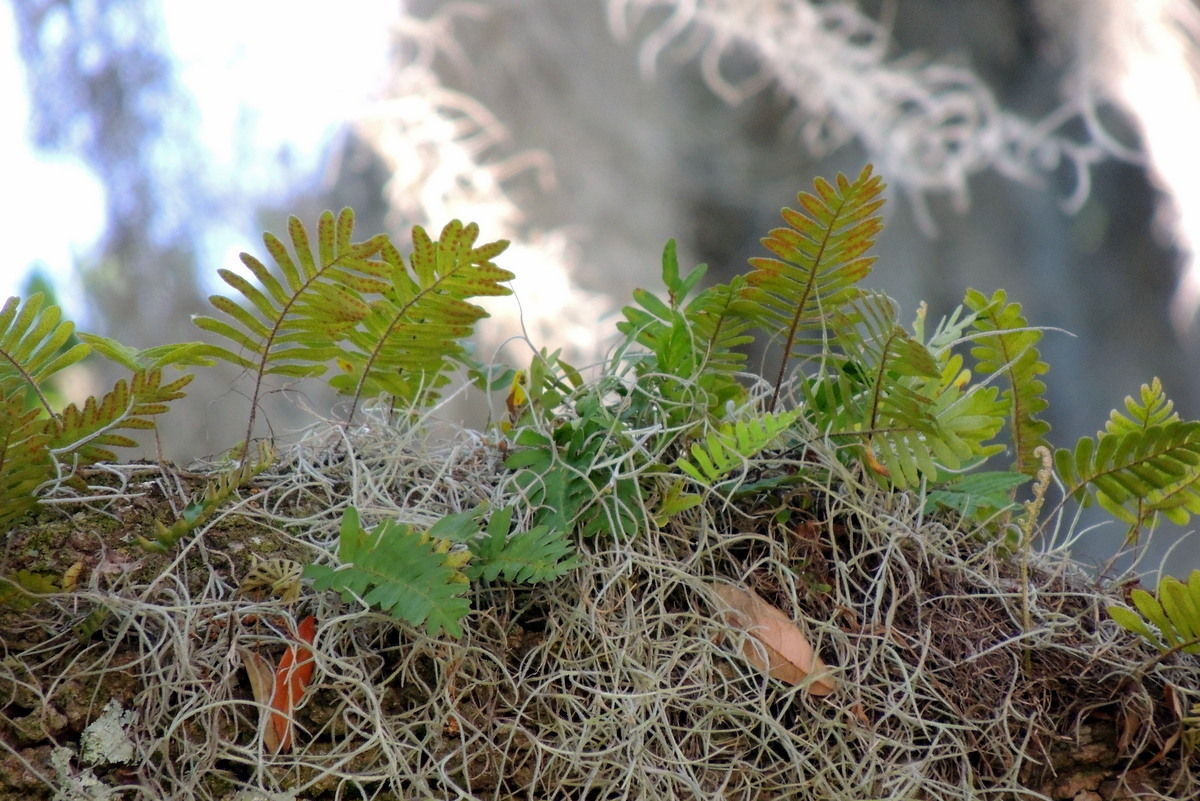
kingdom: Plantae
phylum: Tracheophyta
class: Polypodiopsida
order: Polypodiales
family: Polypodiaceae
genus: Pleopeltis
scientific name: Pleopeltis michauxiana
